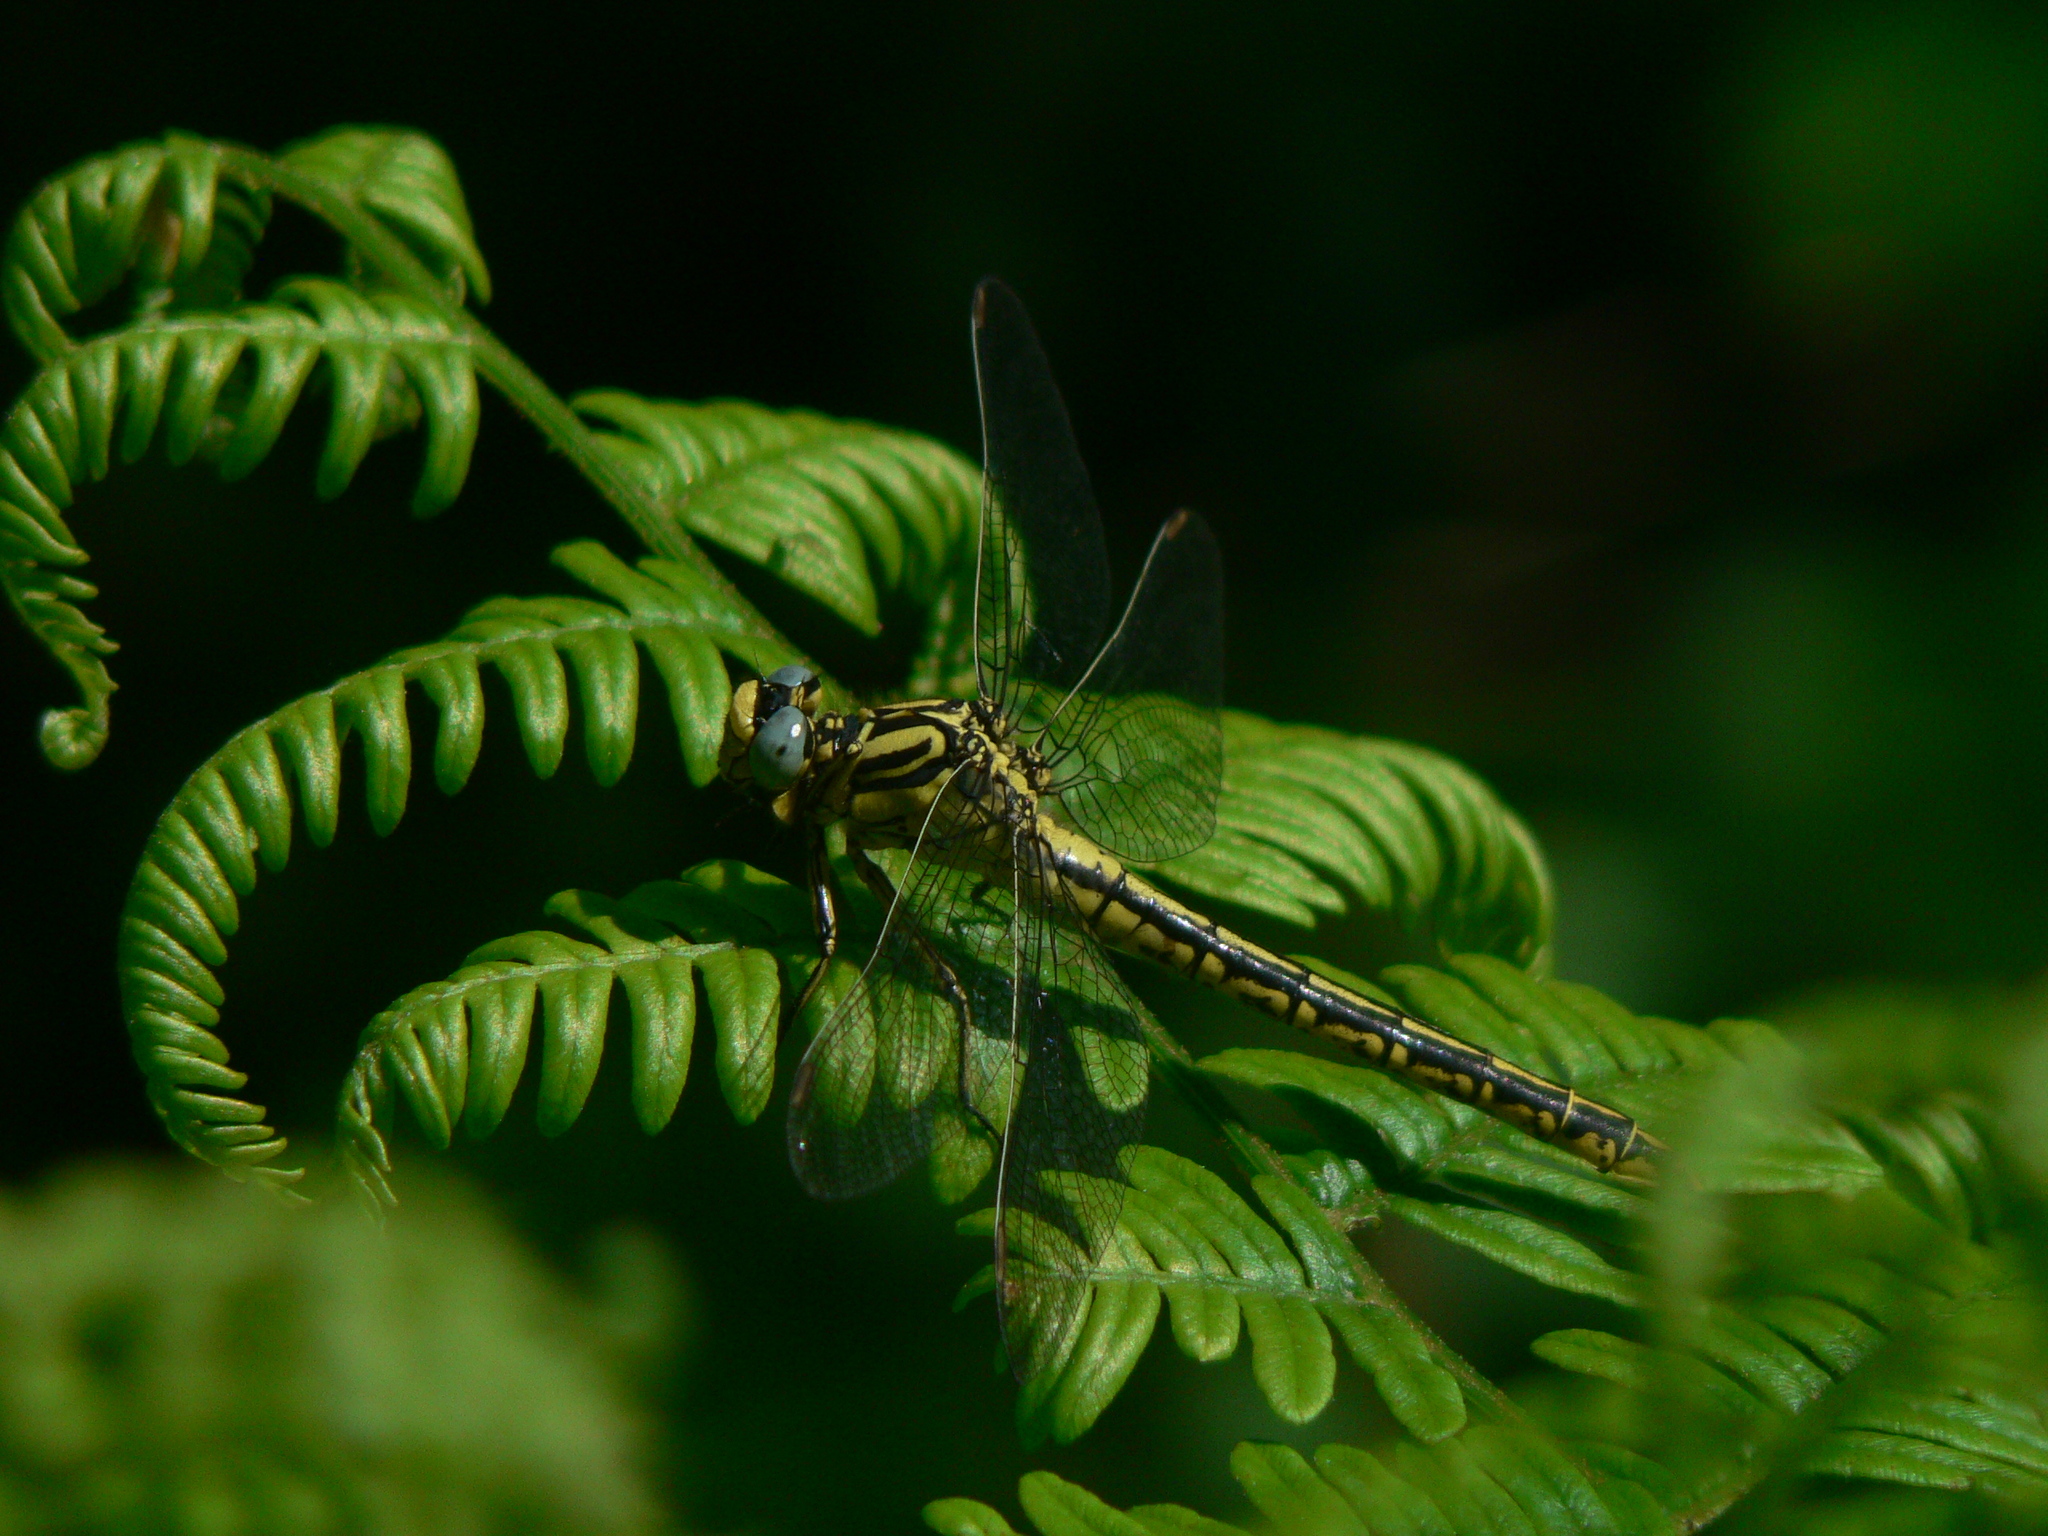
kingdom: Animalia
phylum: Arthropoda
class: Insecta
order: Odonata
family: Gomphidae
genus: Gomphus
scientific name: Gomphus simillimus
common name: Yellow clubtail
